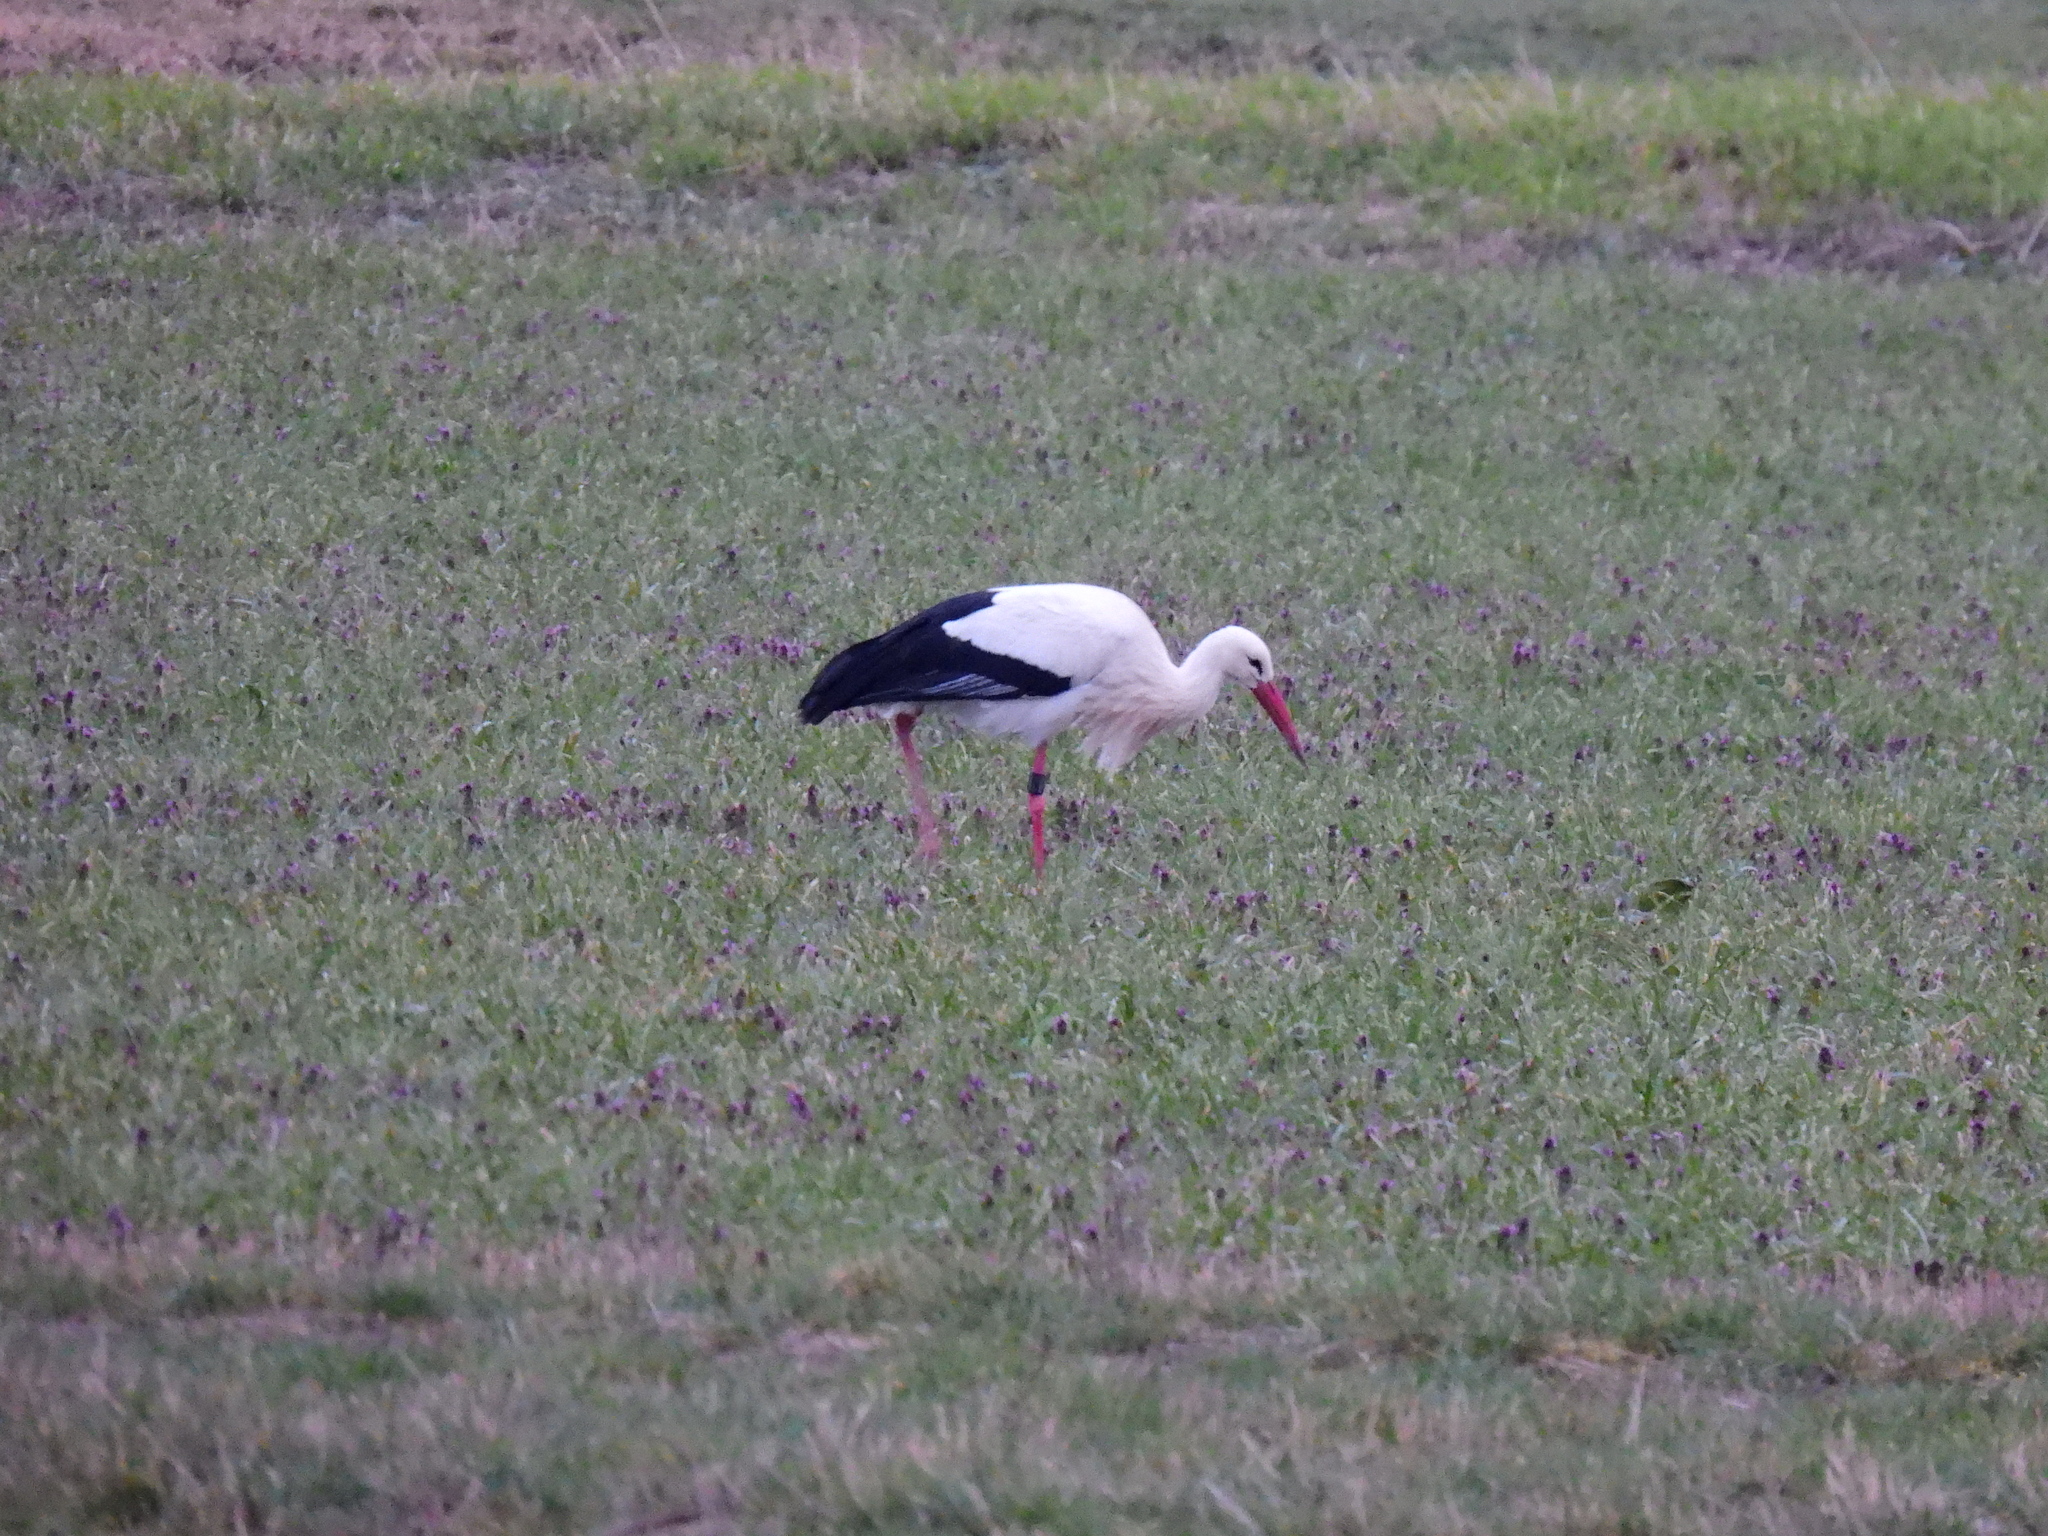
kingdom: Animalia
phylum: Chordata
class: Aves
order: Ciconiiformes
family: Ciconiidae
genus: Ciconia
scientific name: Ciconia ciconia
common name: White stork
